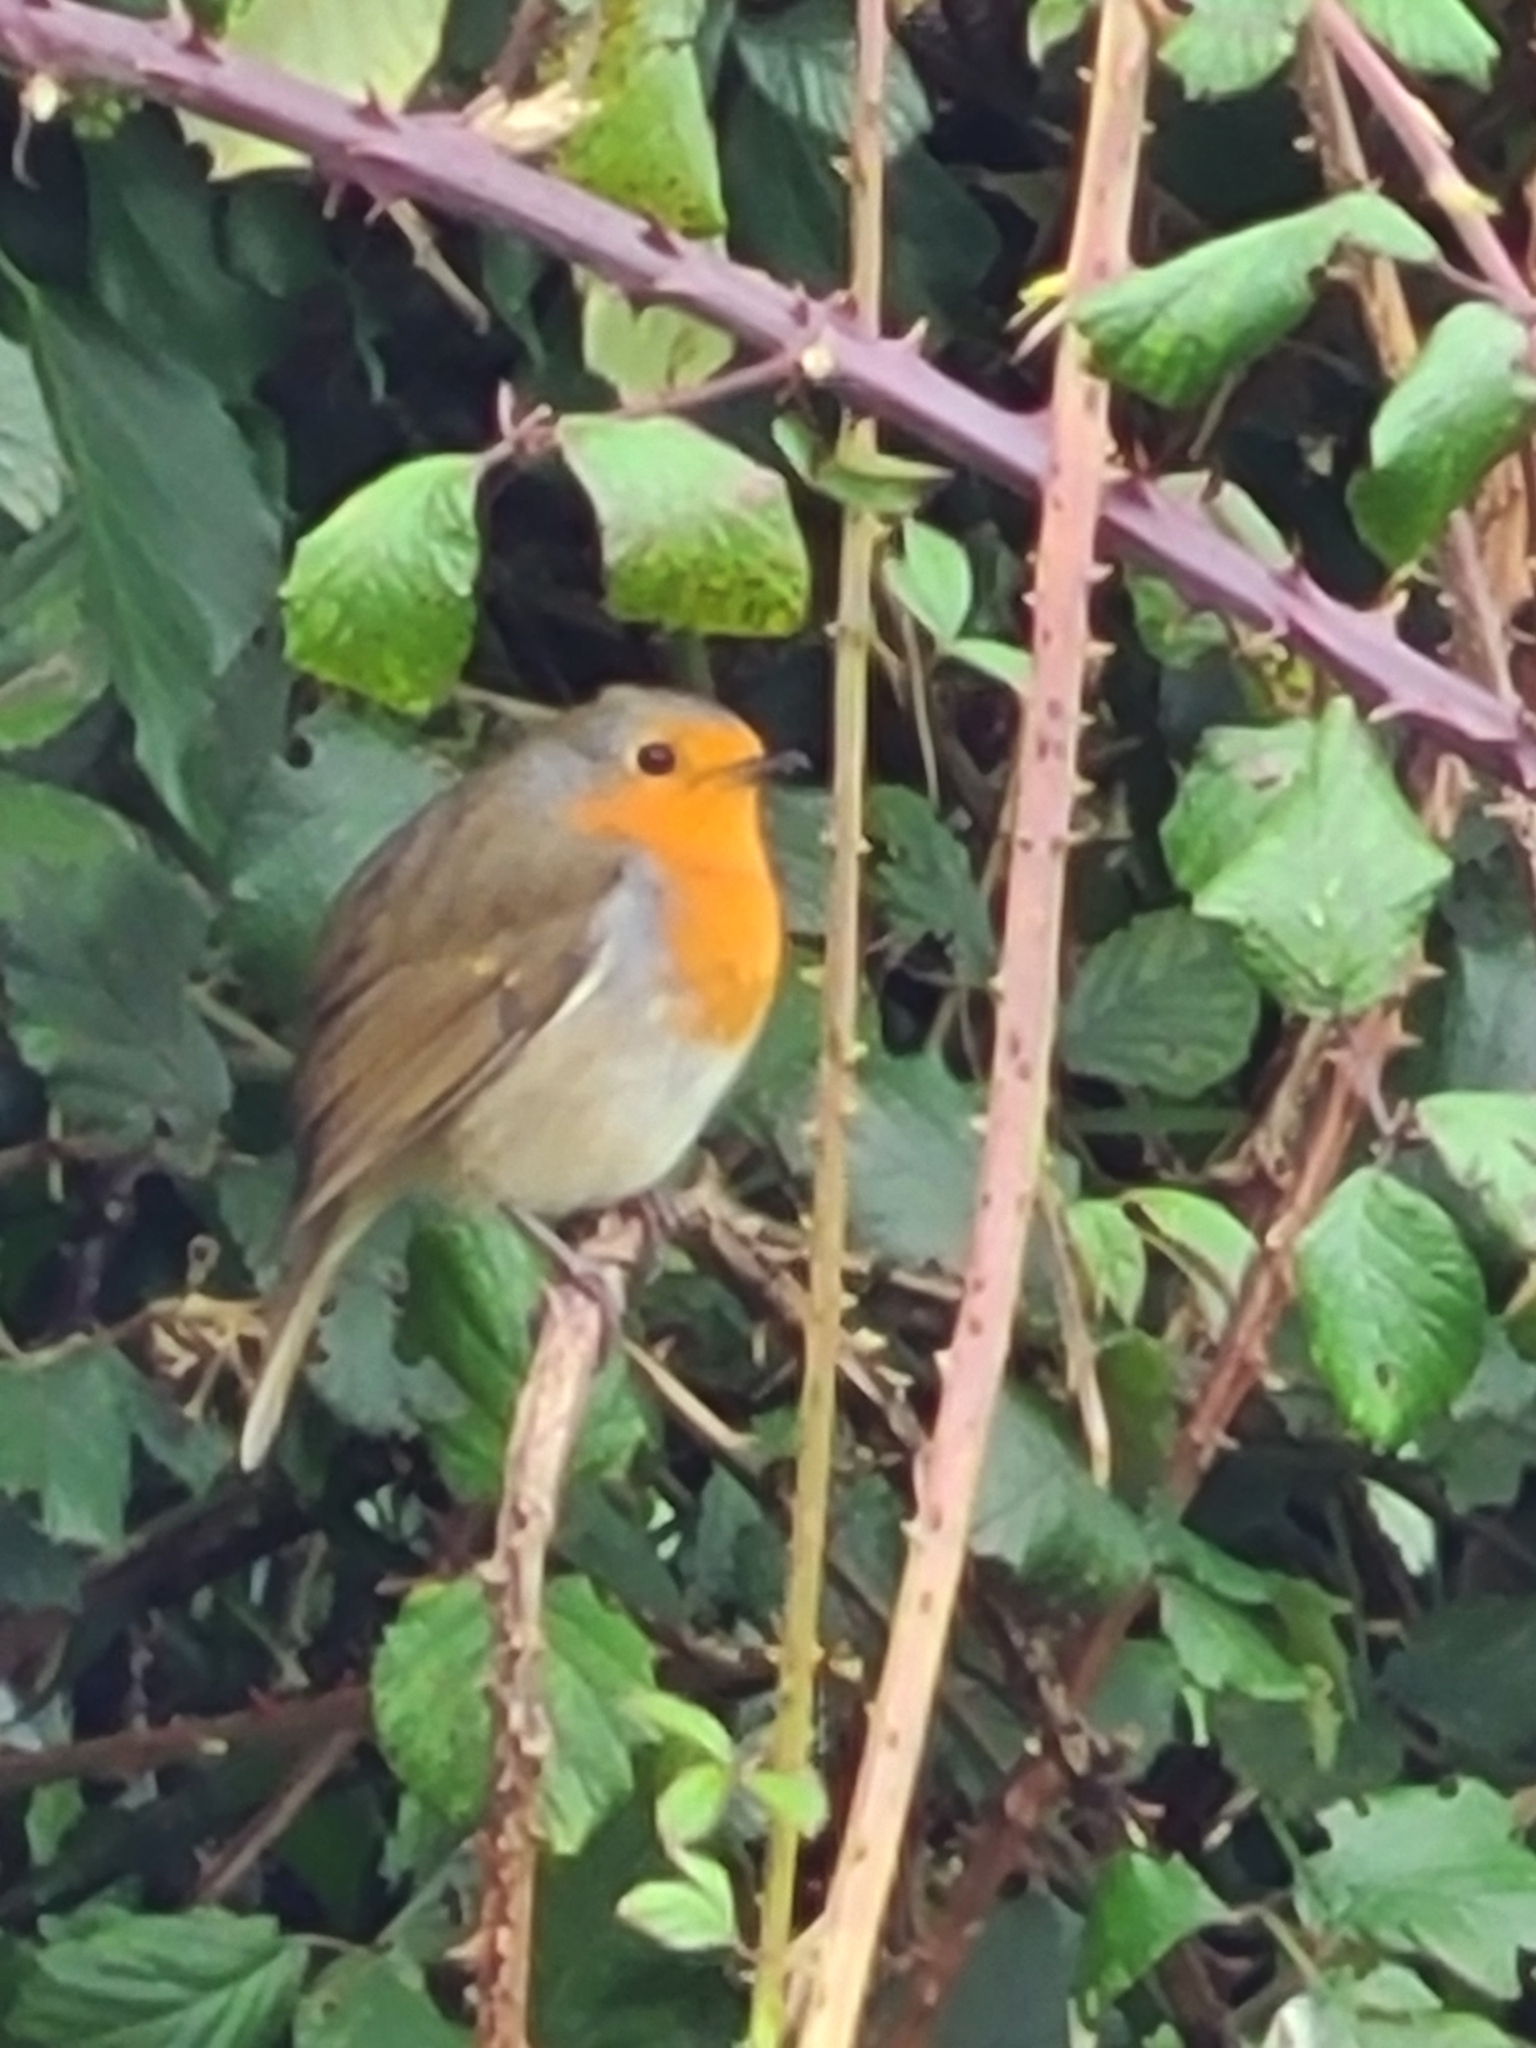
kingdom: Animalia
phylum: Chordata
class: Aves
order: Passeriformes
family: Muscicapidae
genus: Erithacus
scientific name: Erithacus rubecula
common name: European robin
